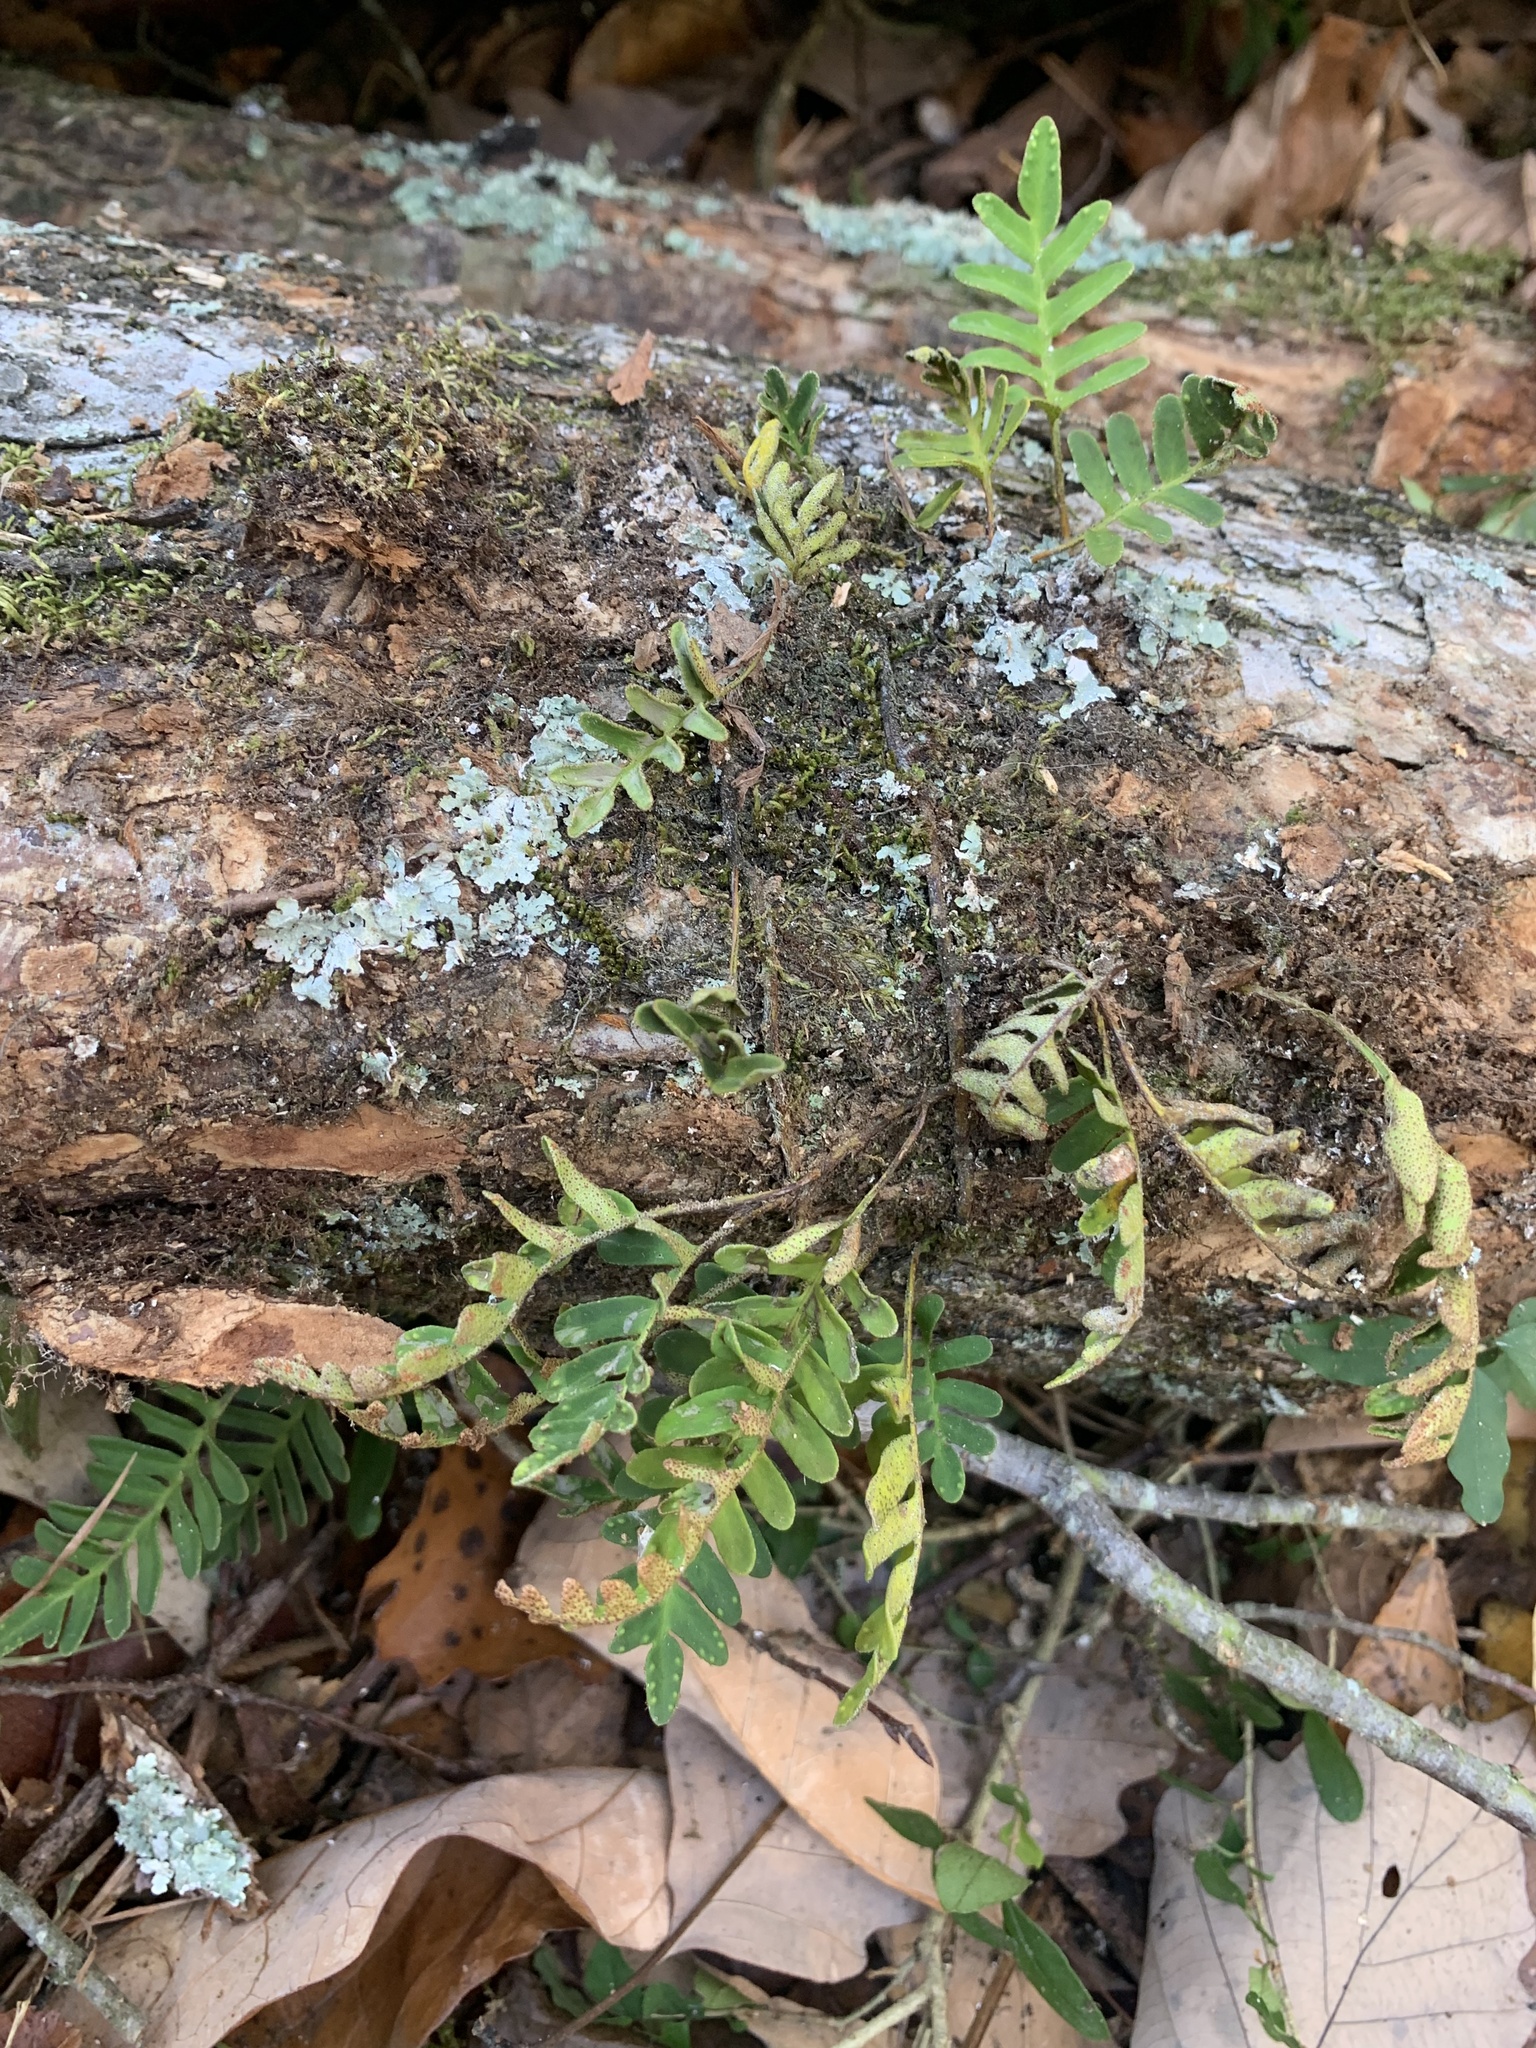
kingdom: Plantae
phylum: Tracheophyta
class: Polypodiopsida
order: Polypodiales
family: Polypodiaceae
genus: Pleopeltis
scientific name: Pleopeltis michauxiana
